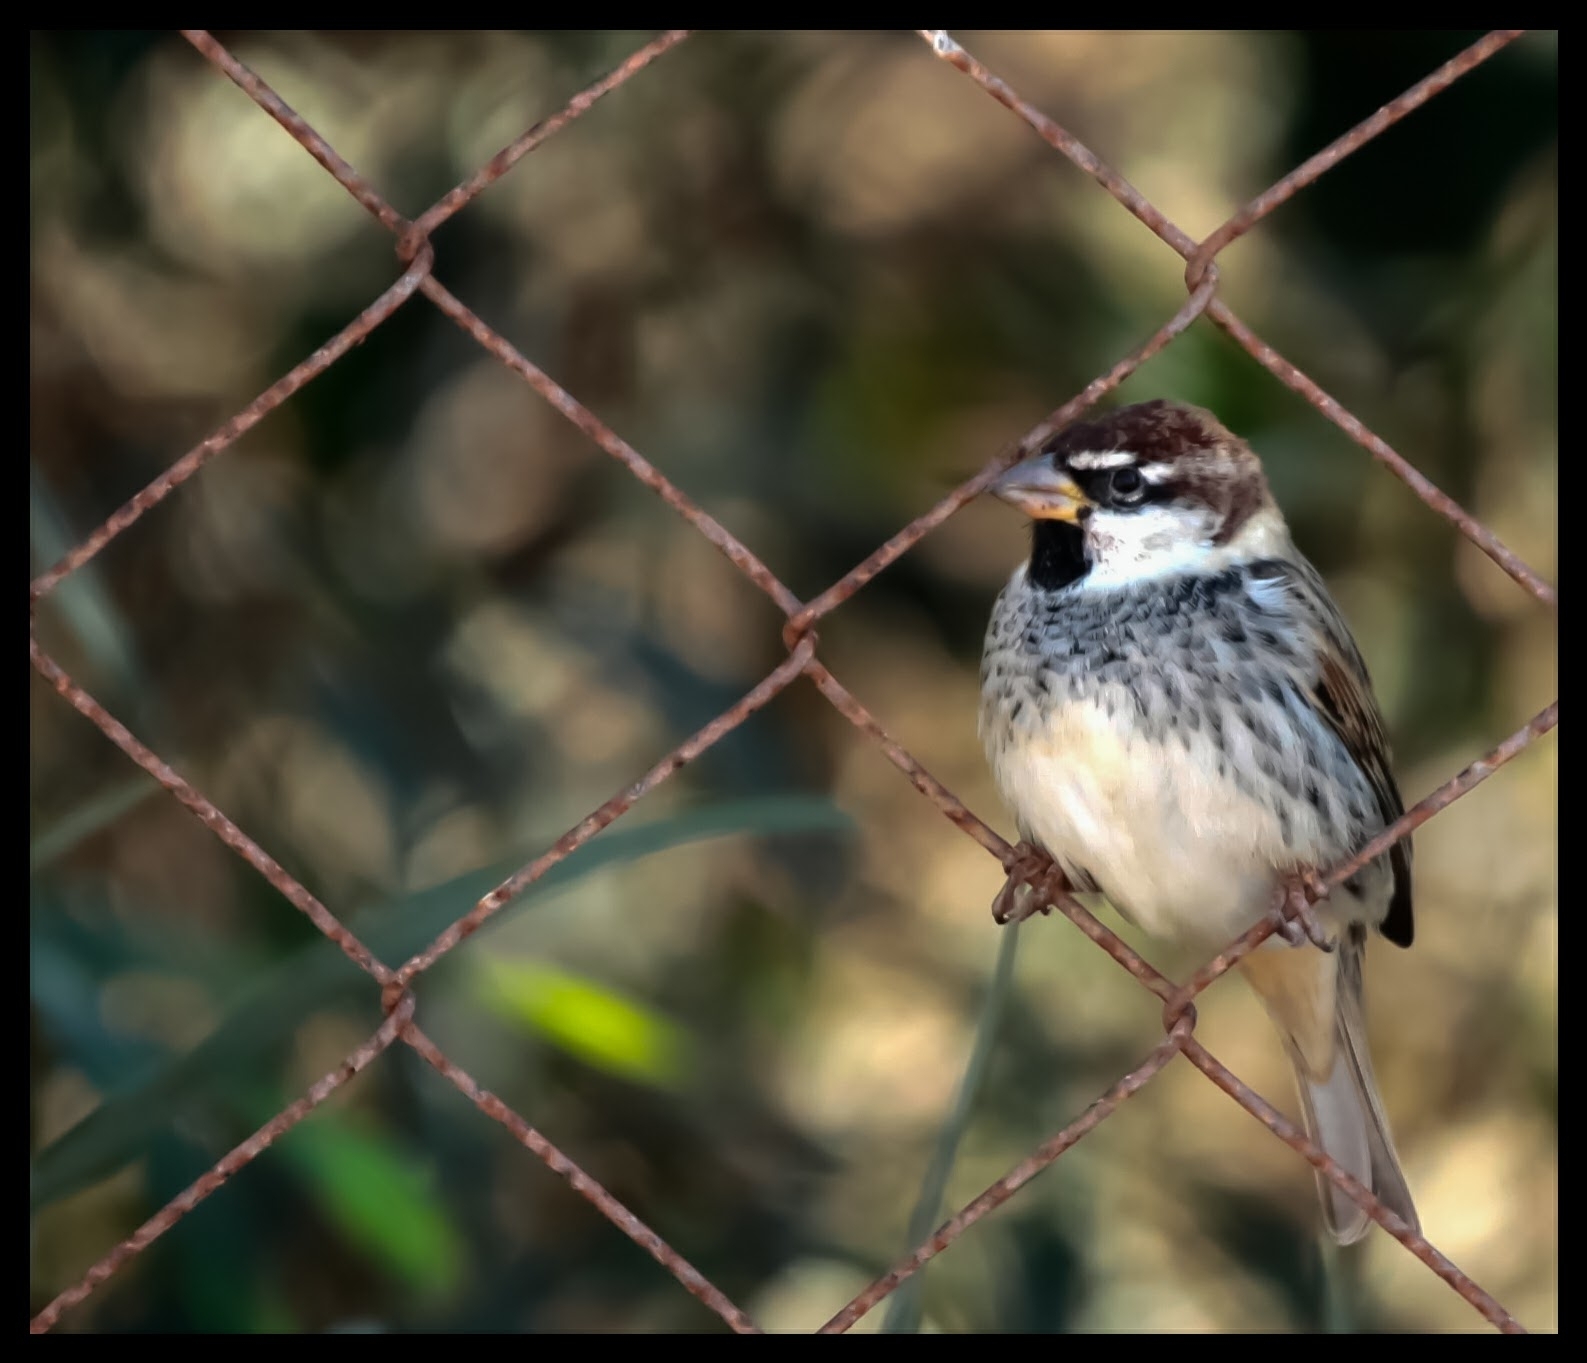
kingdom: Animalia
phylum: Chordata
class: Aves
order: Passeriformes
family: Passeridae
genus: Passer
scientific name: Passer hispaniolensis
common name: Spanish sparrow
